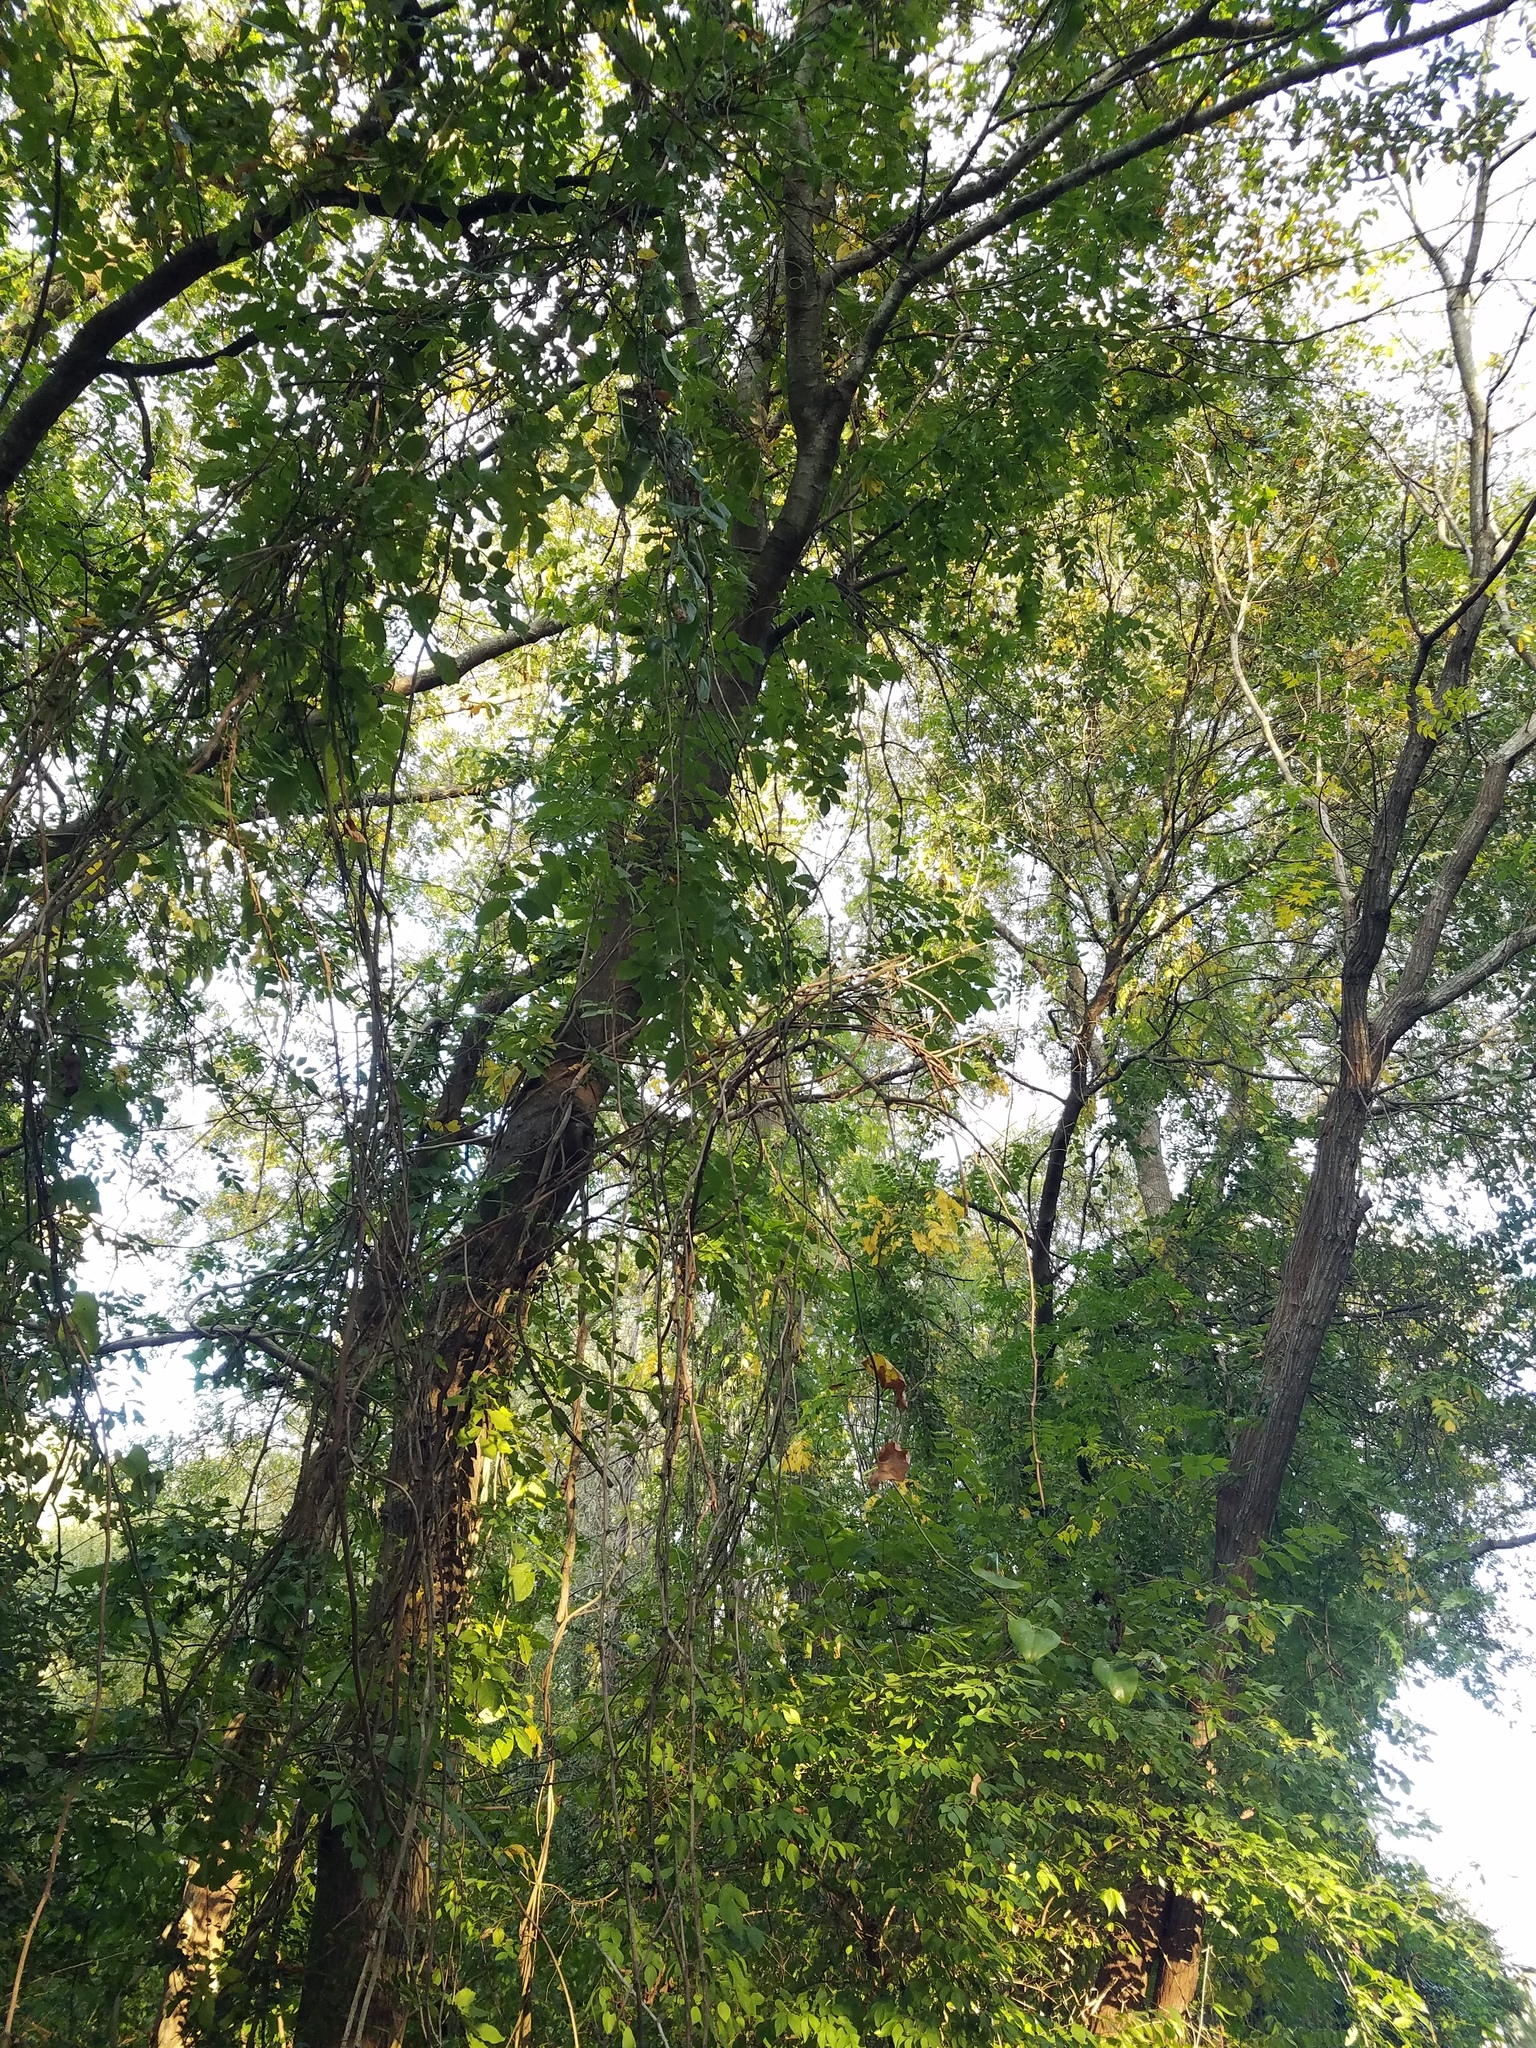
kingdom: Plantae
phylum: Tracheophyta
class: Liliopsida
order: Liliales
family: Smilacaceae
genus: Smilax
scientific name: Smilax bona-nox
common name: Catbrier
